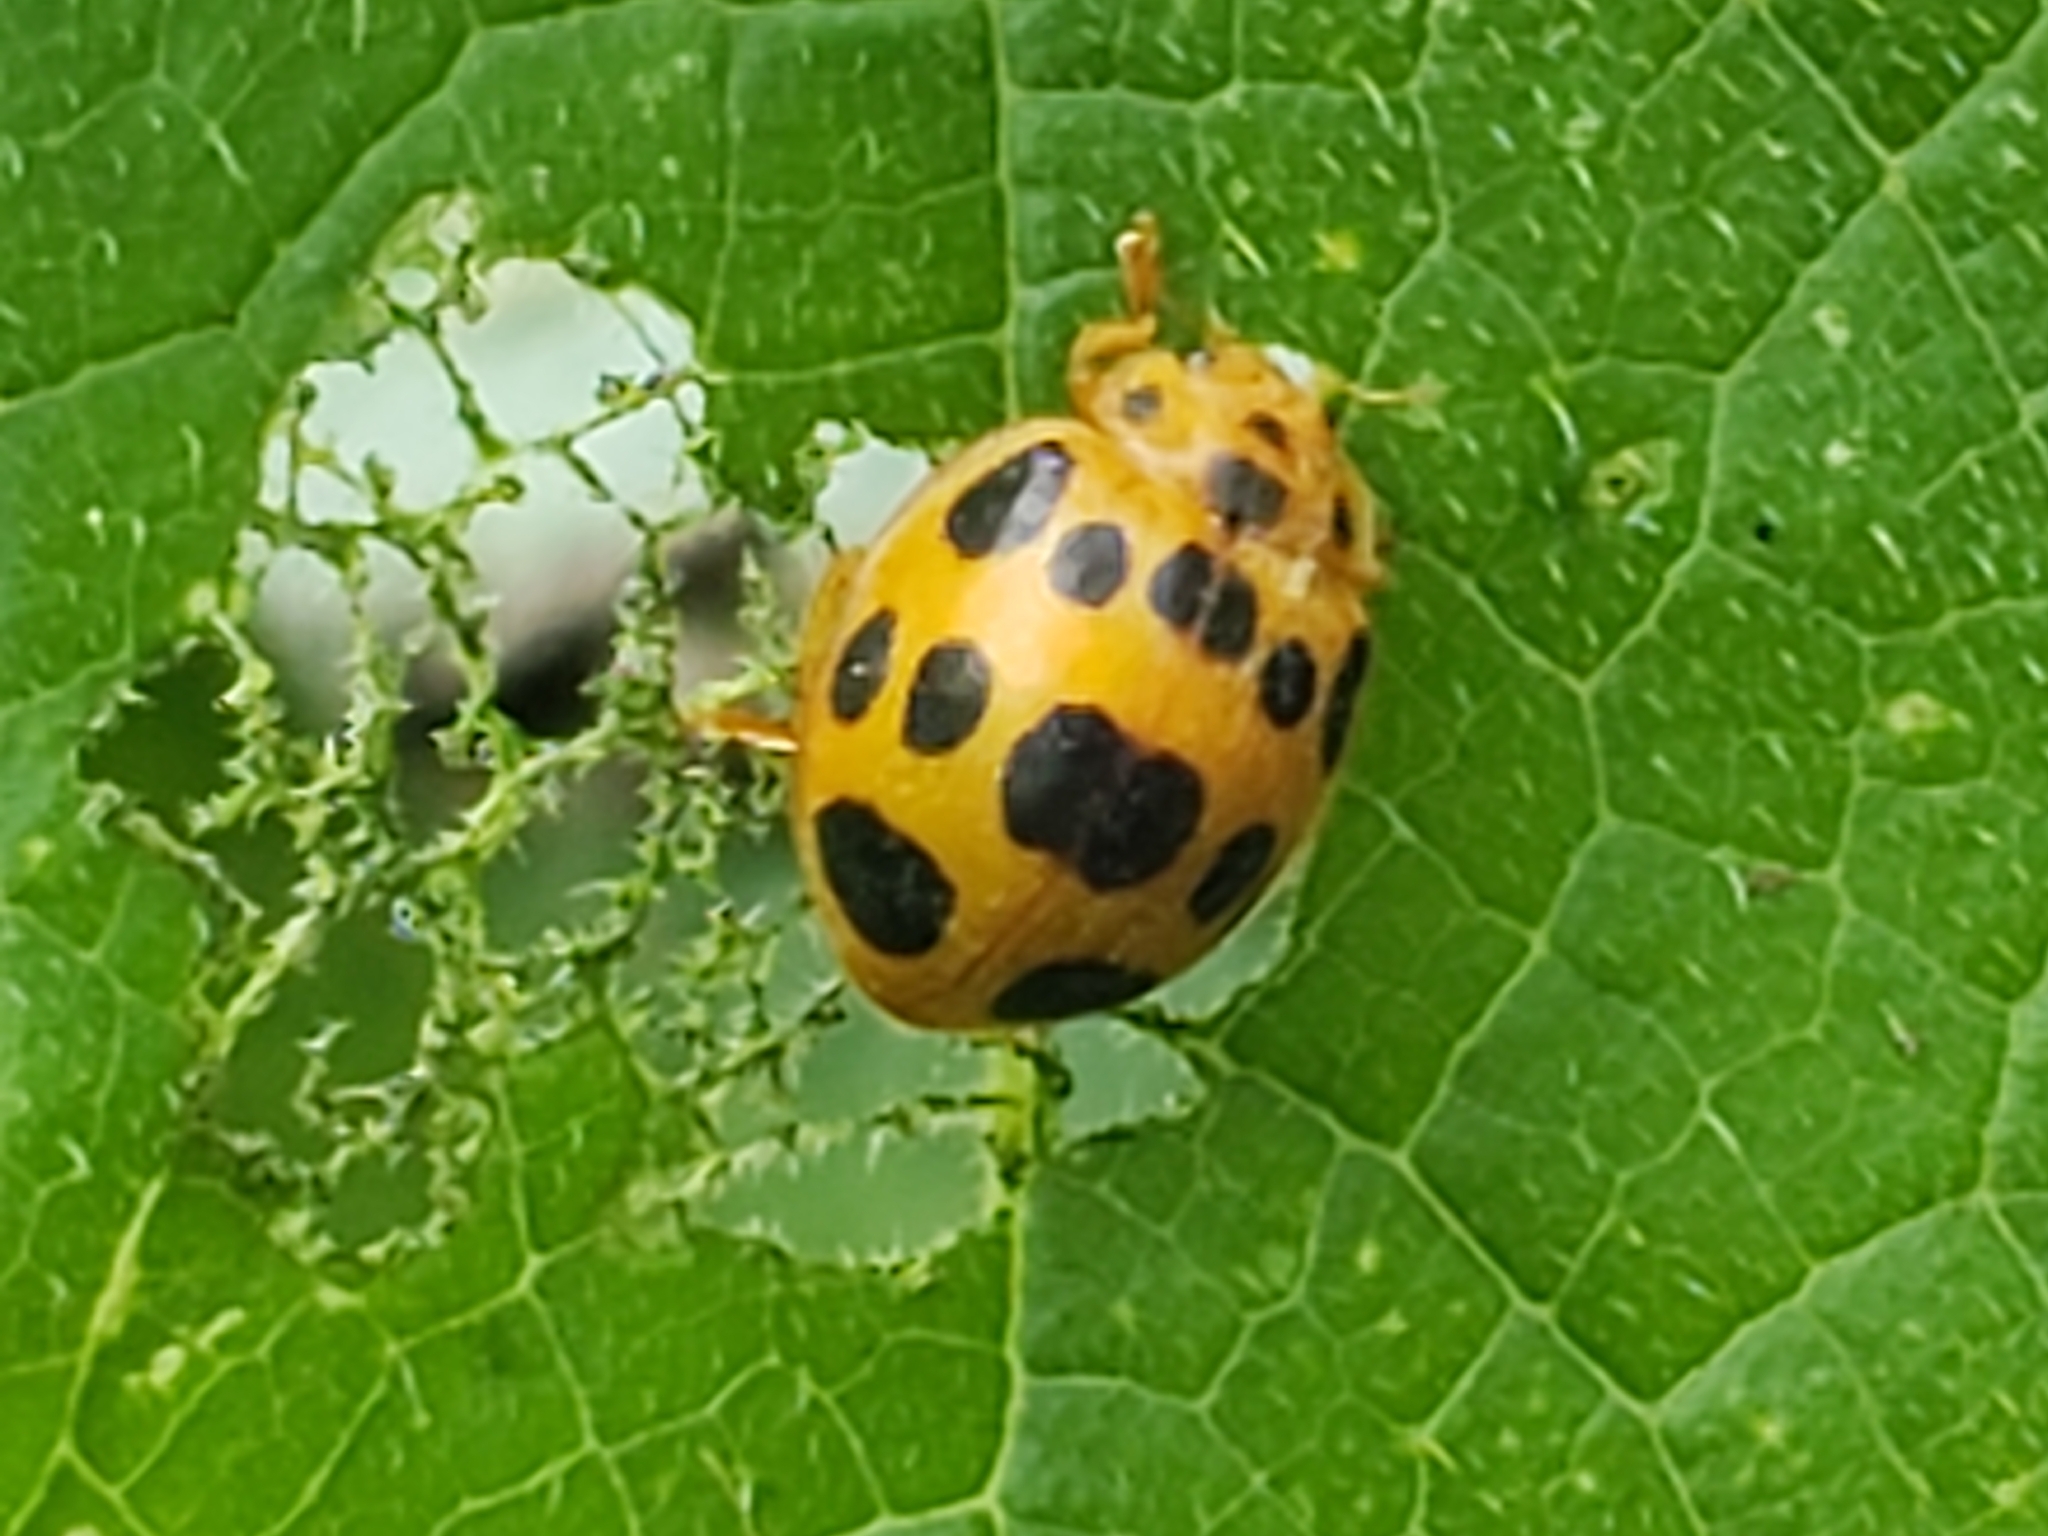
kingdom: Animalia
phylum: Arthropoda
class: Insecta
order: Coleoptera
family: Coccinellidae
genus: Epilachna
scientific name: Epilachna borealis
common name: Squash beetle
